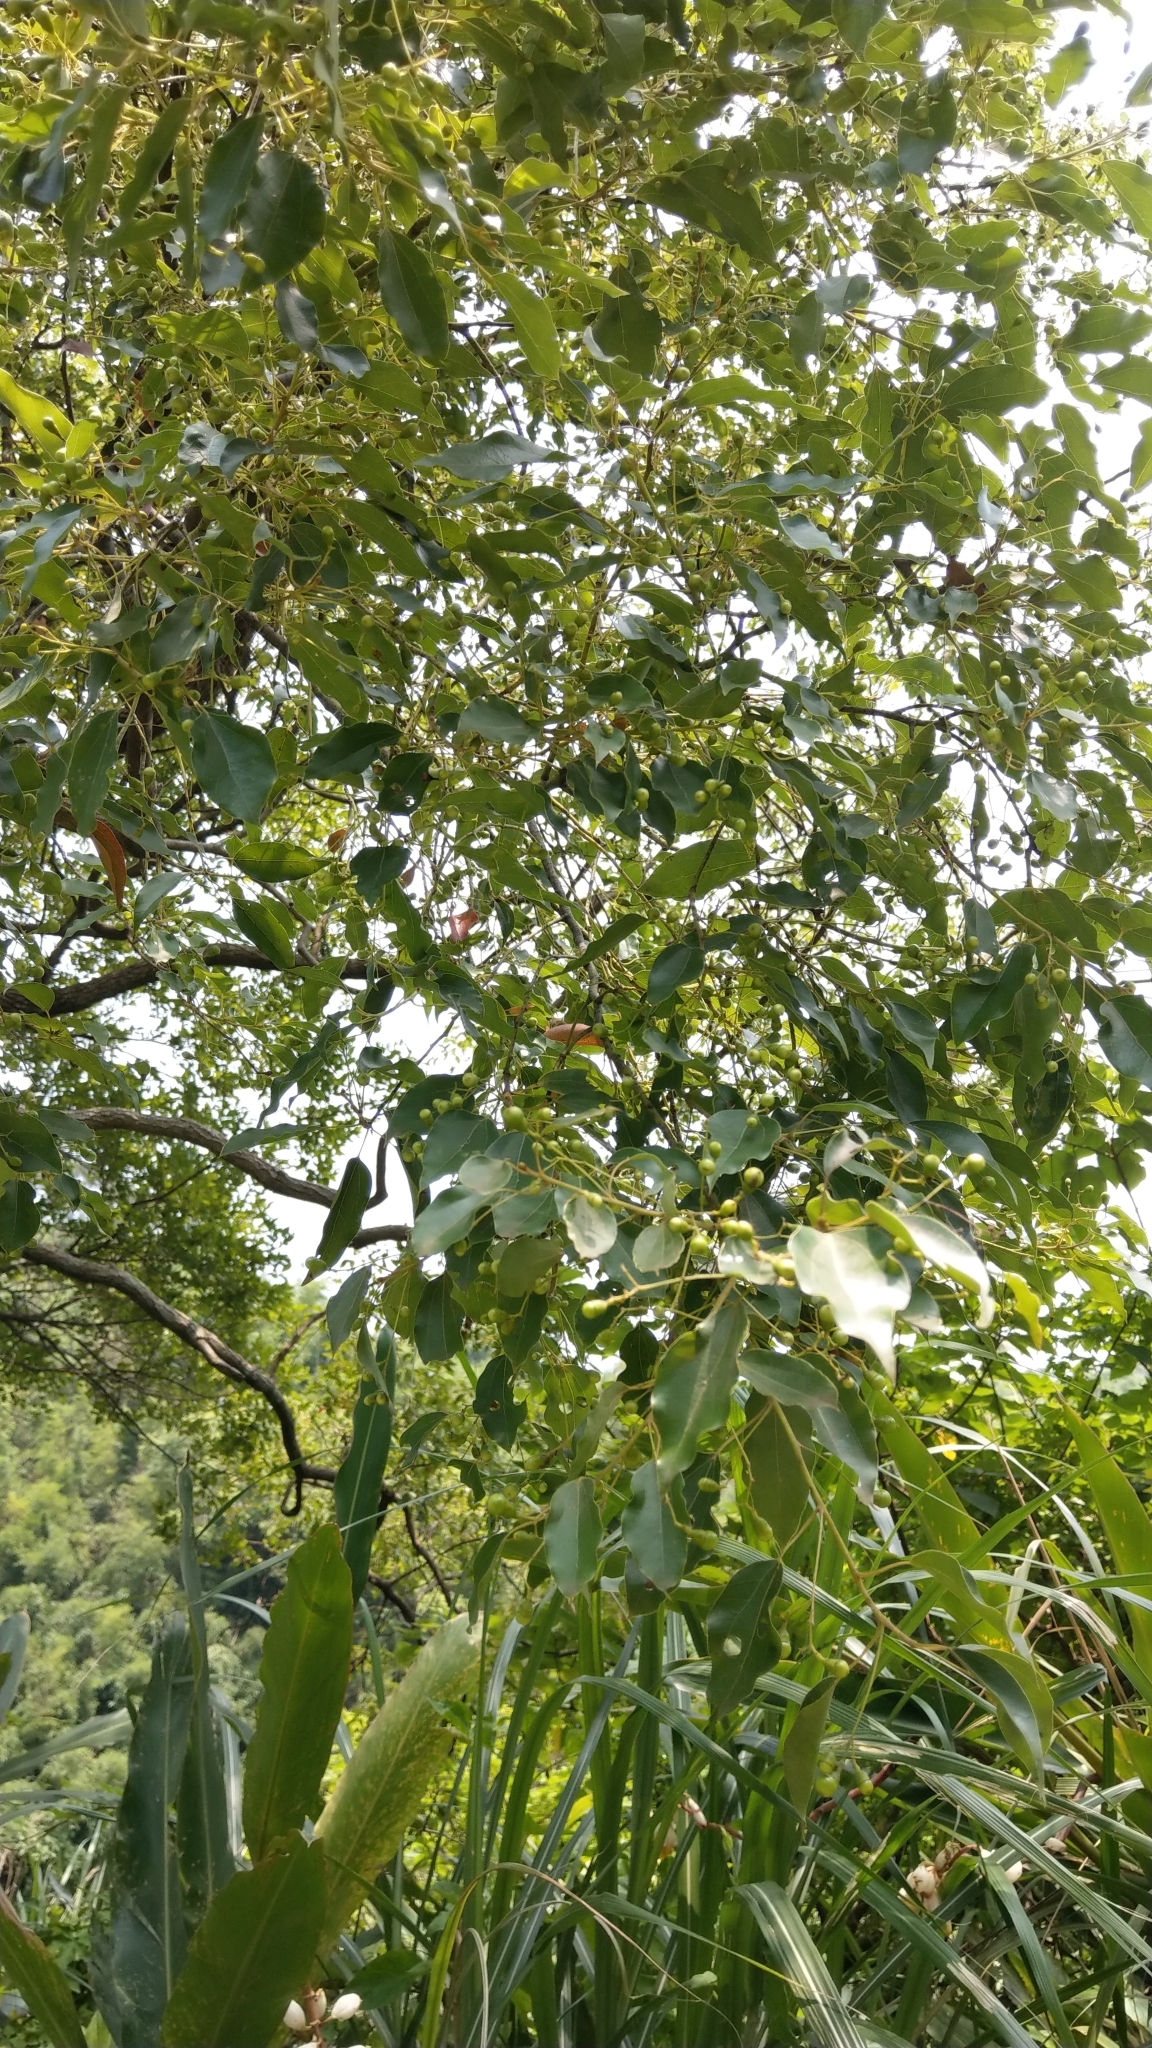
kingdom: Plantae
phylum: Tracheophyta
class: Magnoliopsida
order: Laurales
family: Lauraceae
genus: Cinnamomum
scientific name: Cinnamomum camphora
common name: Camphortree
